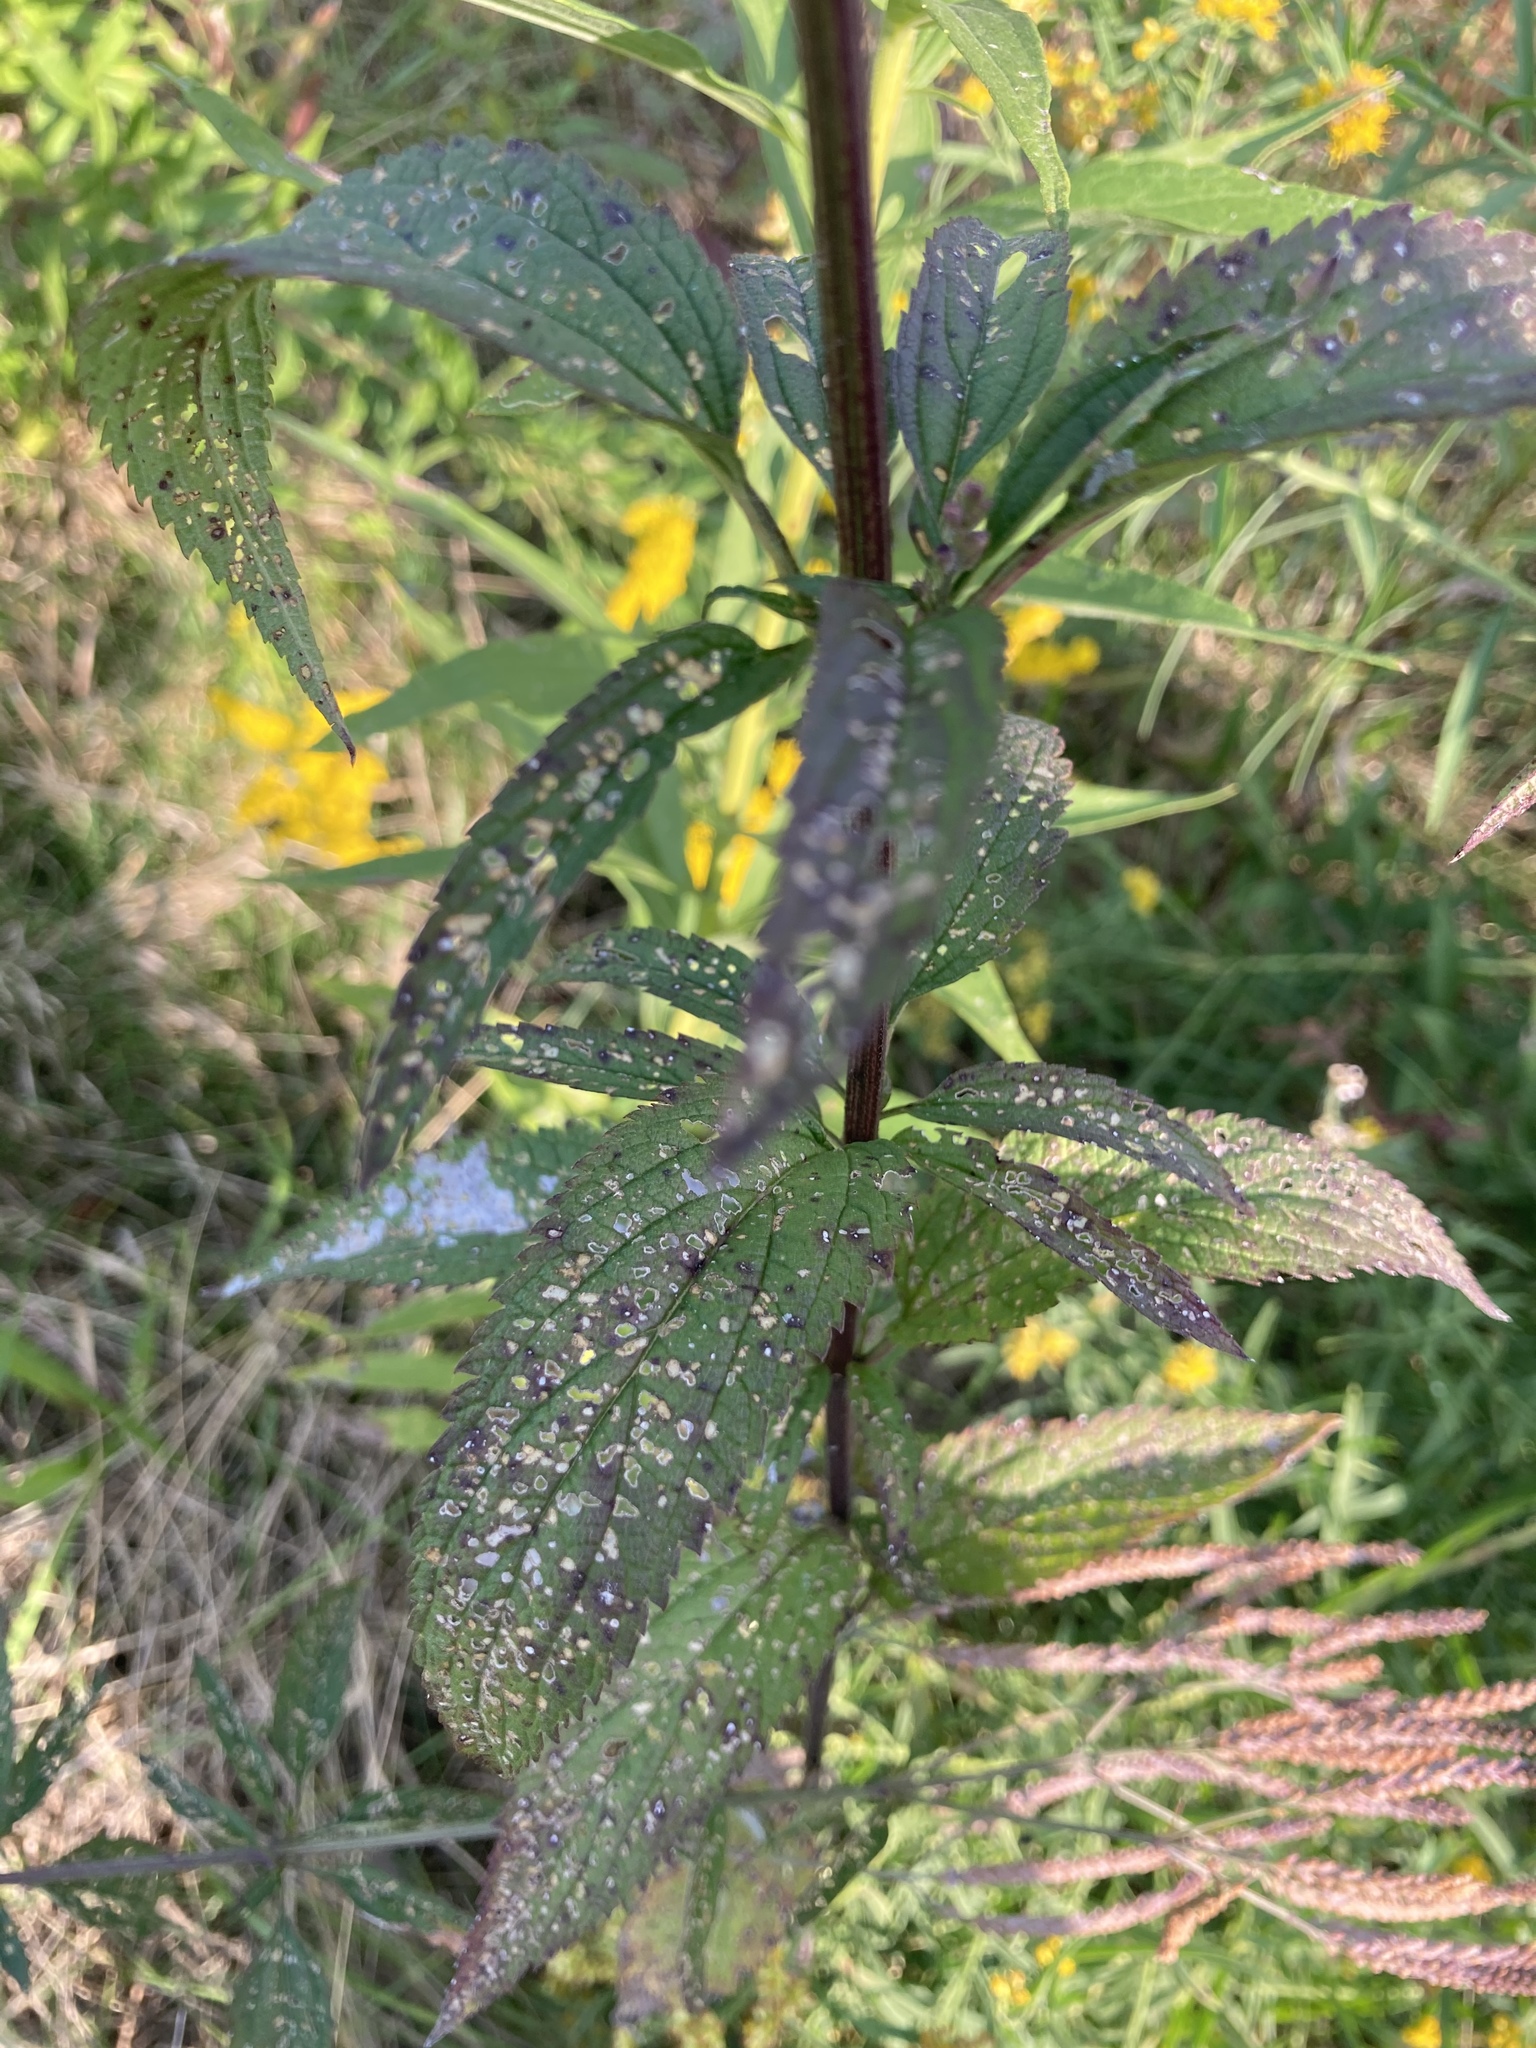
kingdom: Plantae
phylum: Tracheophyta
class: Magnoliopsida
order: Lamiales
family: Verbenaceae
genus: Verbena
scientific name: Verbena hastata
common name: American blue vervain
